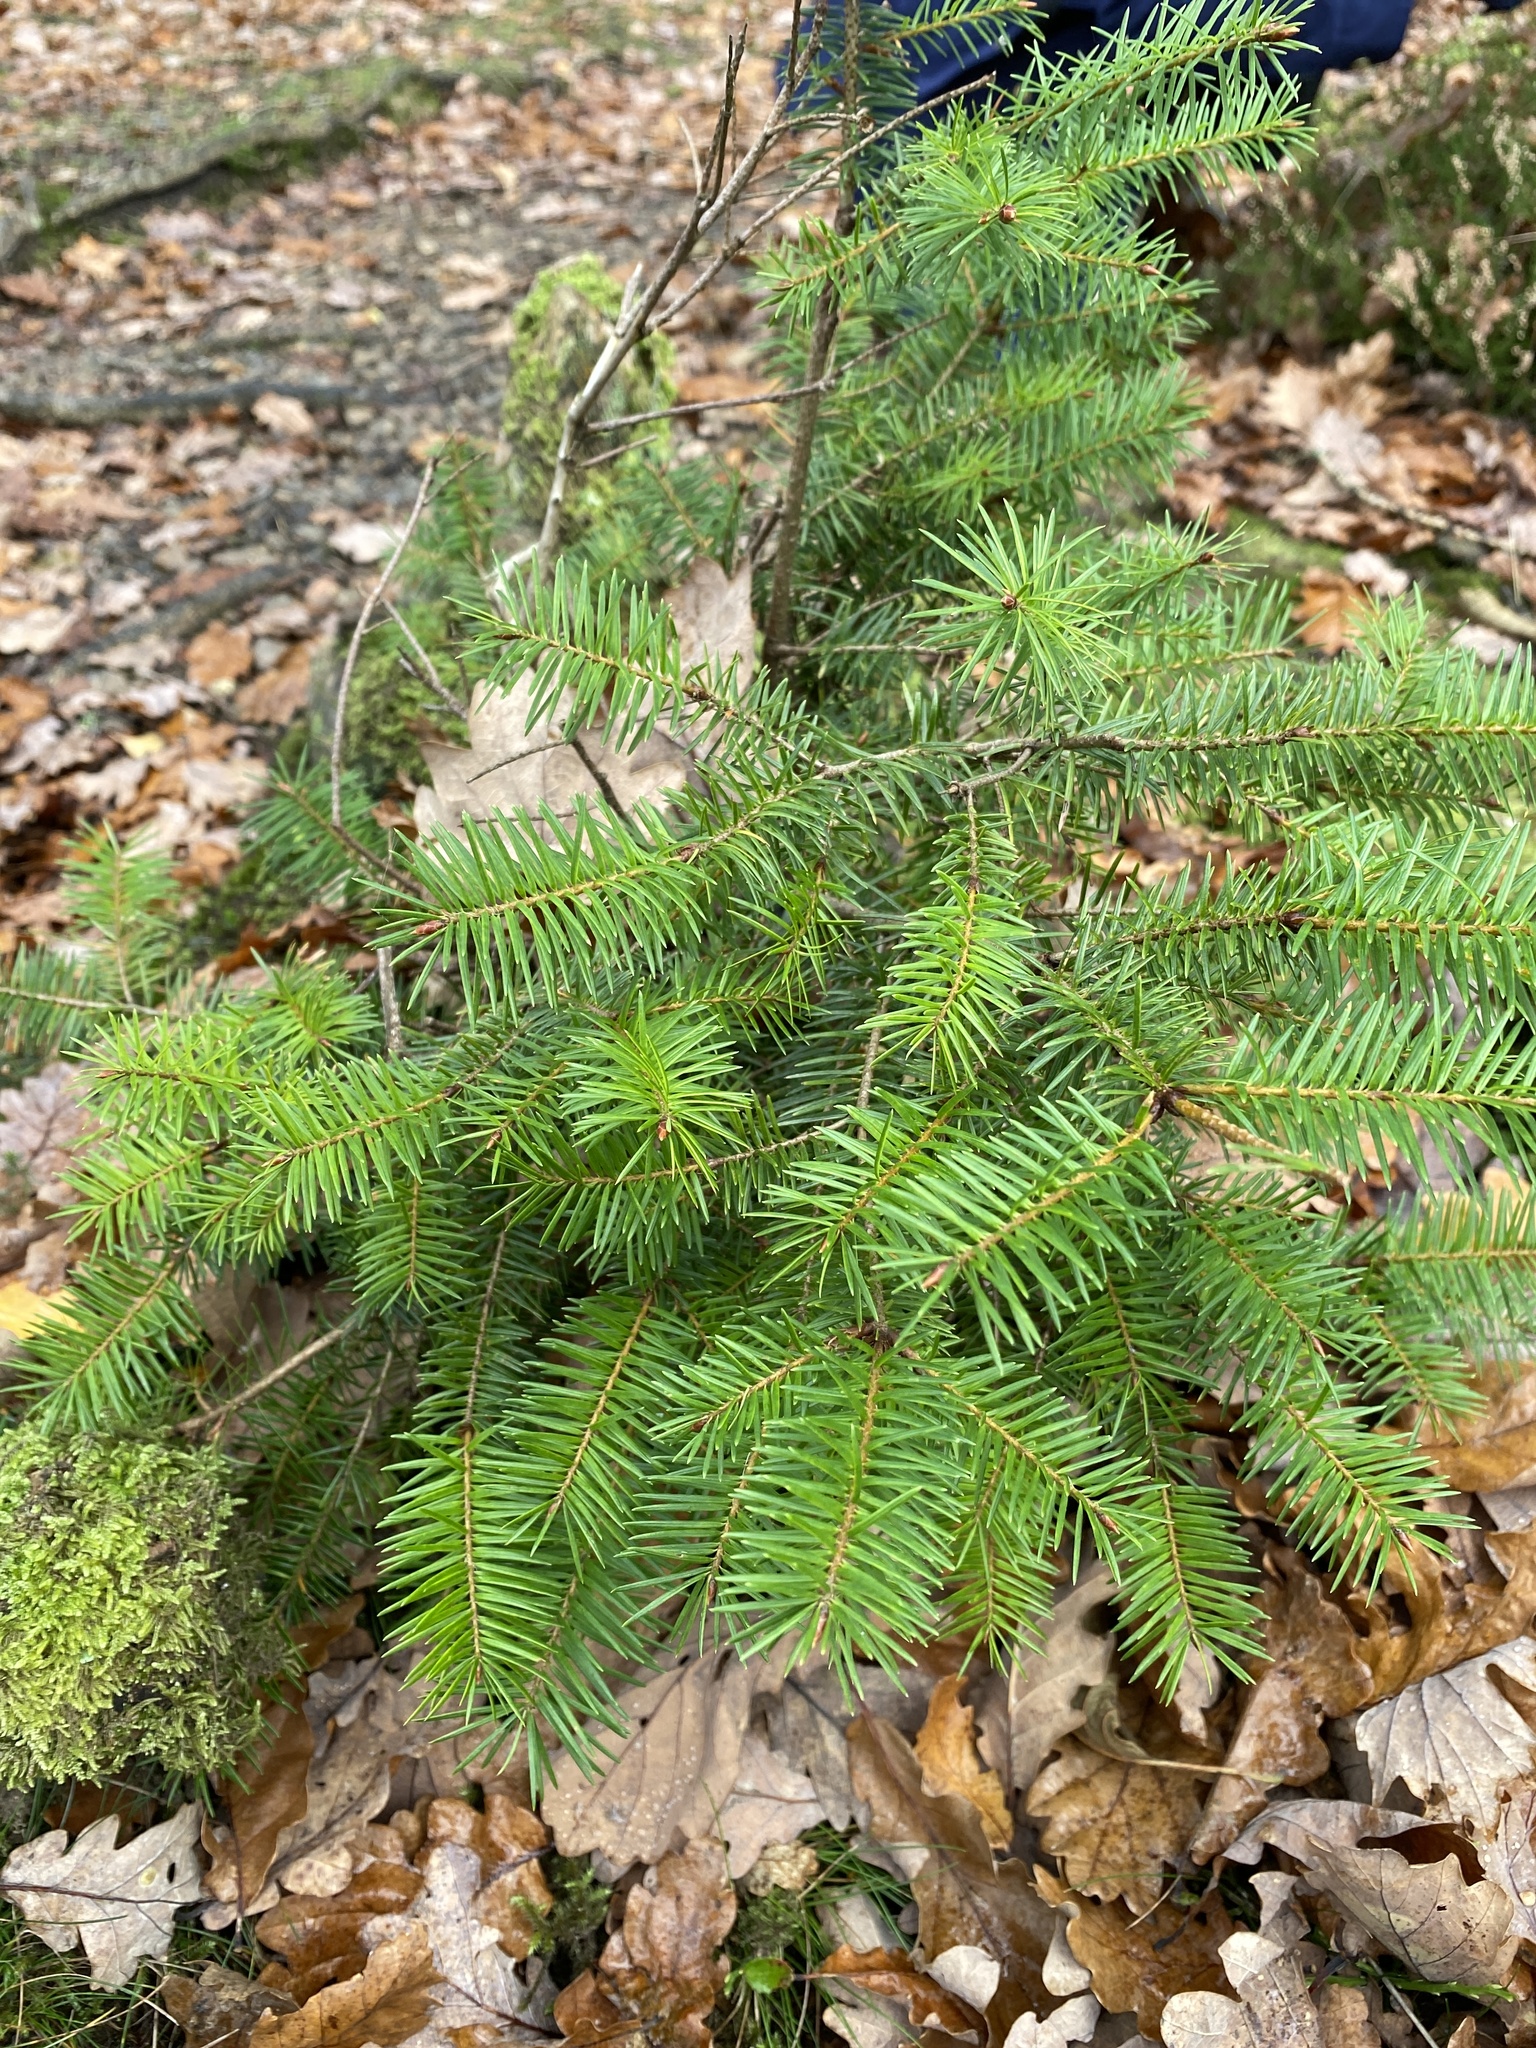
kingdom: Plantae
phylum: Tracheophyta
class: Pinopsida
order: Pinales
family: Pinaceae
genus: Pseudotsuga
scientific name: Pseudotsuga menziesii
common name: Douglas fir
